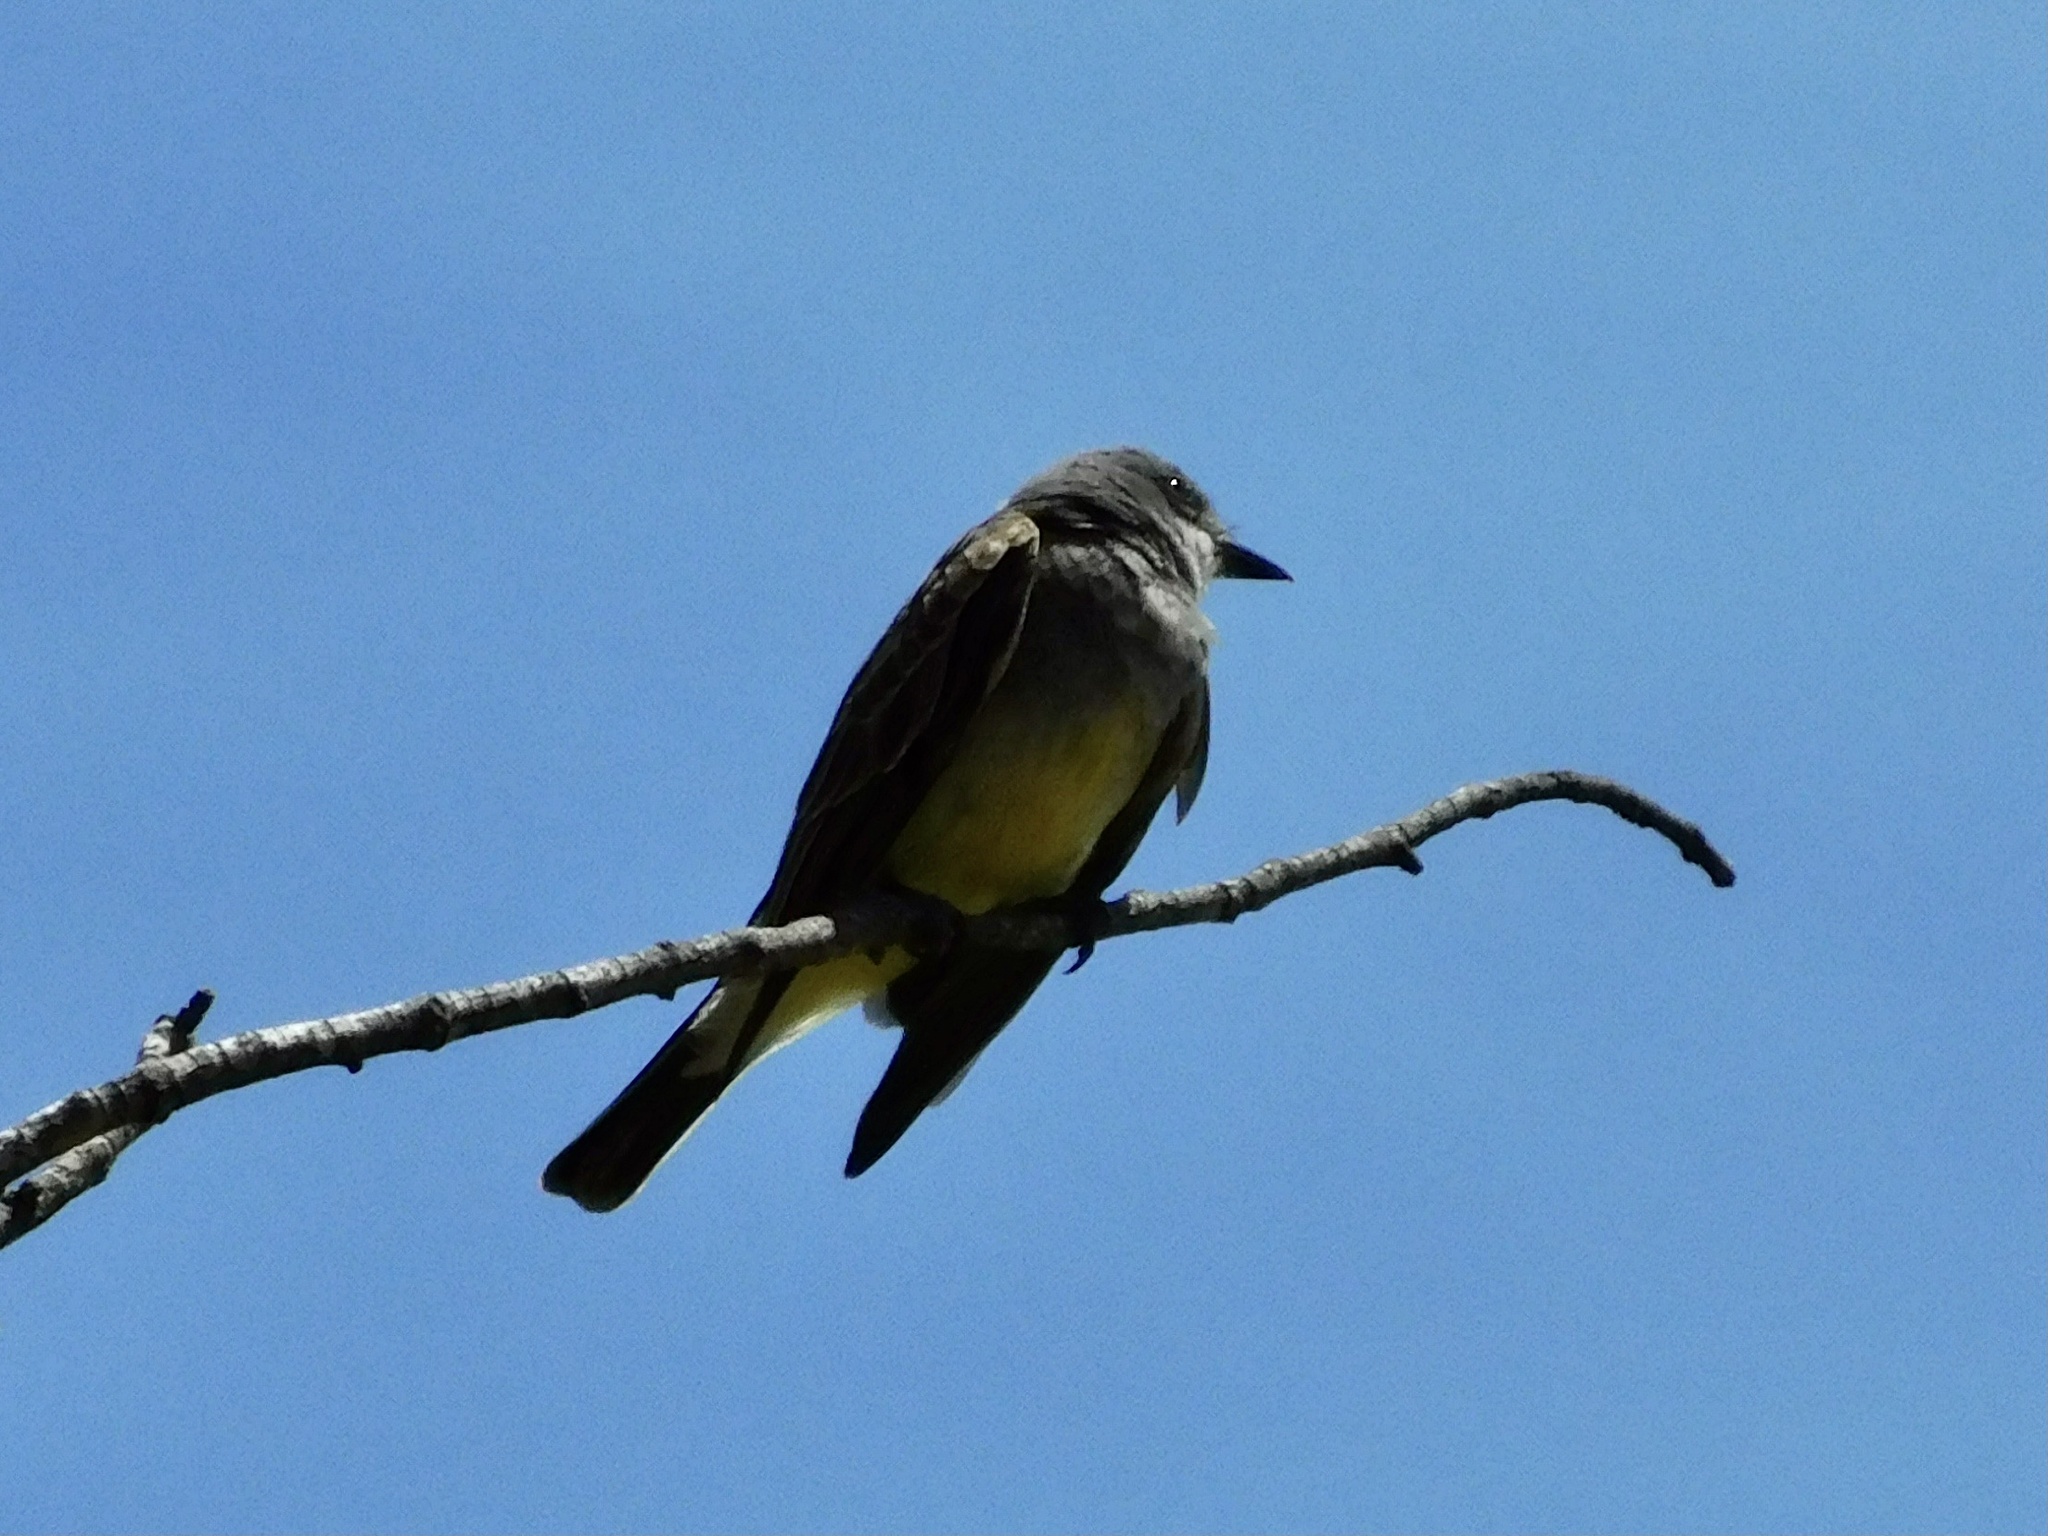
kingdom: Animalia
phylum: Chordata
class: Aves
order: Passeriformes
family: Tyrannidae
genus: Tyrannus
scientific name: Tyrannus vociferans
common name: Cassin's kingbird
